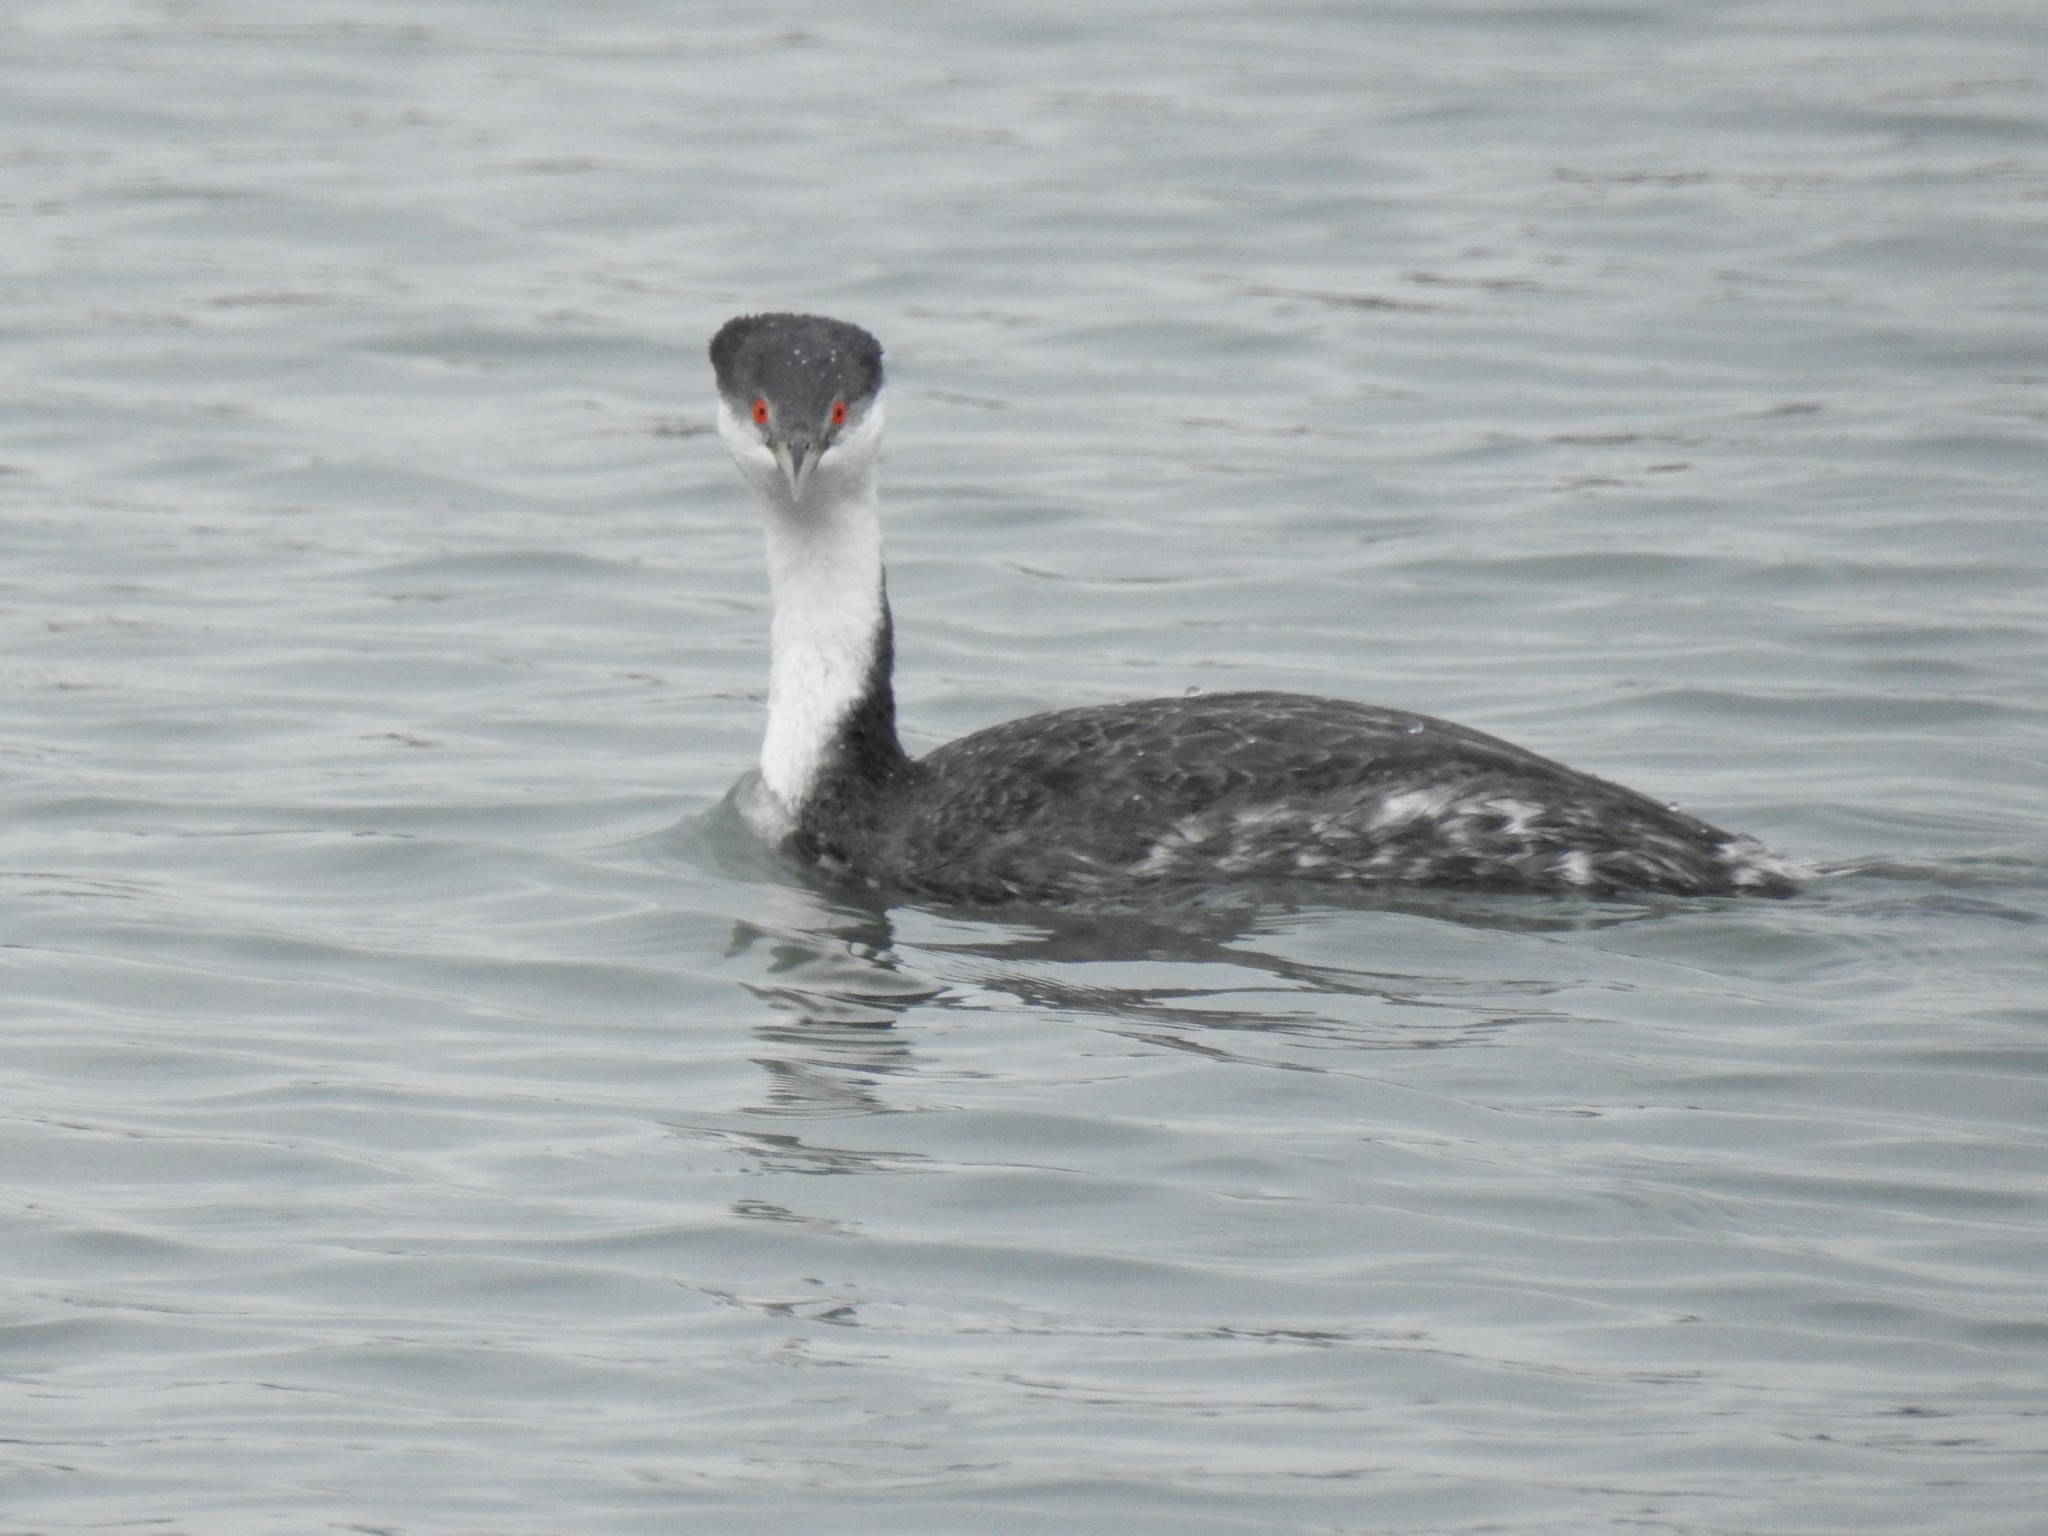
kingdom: Animalia
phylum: Chordata
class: Aves
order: Podicipediformes
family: Podicipedidae
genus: Aechmophorus
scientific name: Aechmophorus occidentalis
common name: Western grebe
